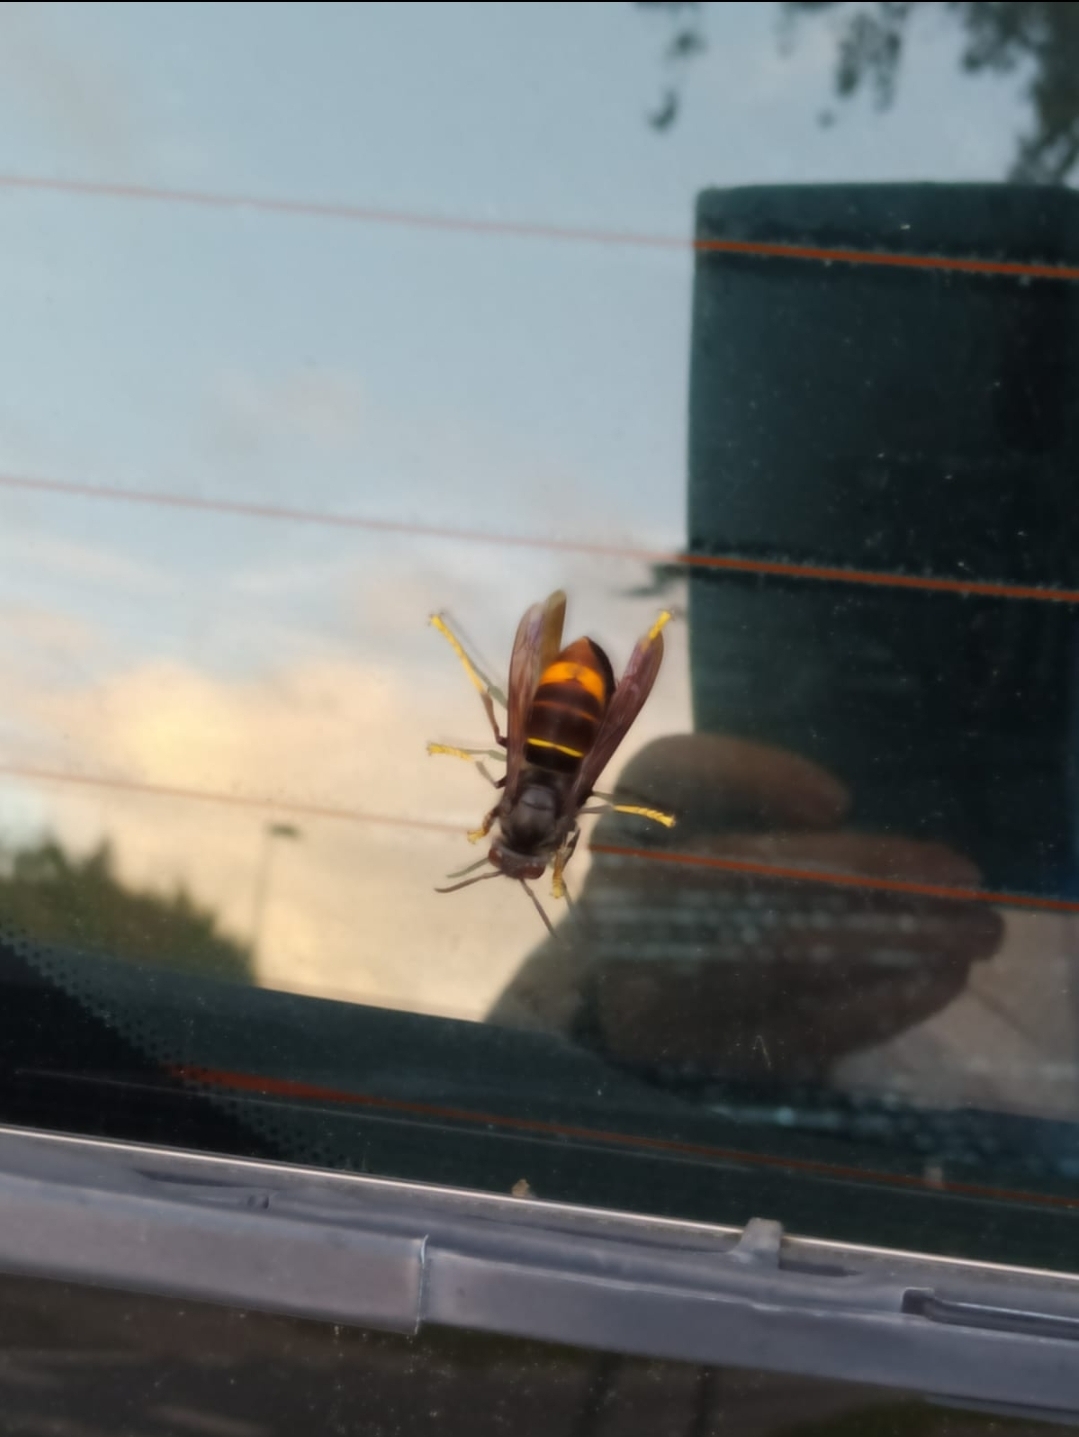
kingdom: Animalia
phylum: Arthropoda
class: Insecta
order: Hymenoptera
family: Vespidae
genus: Vespa
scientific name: Vespa velutina
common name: Asian hornet
